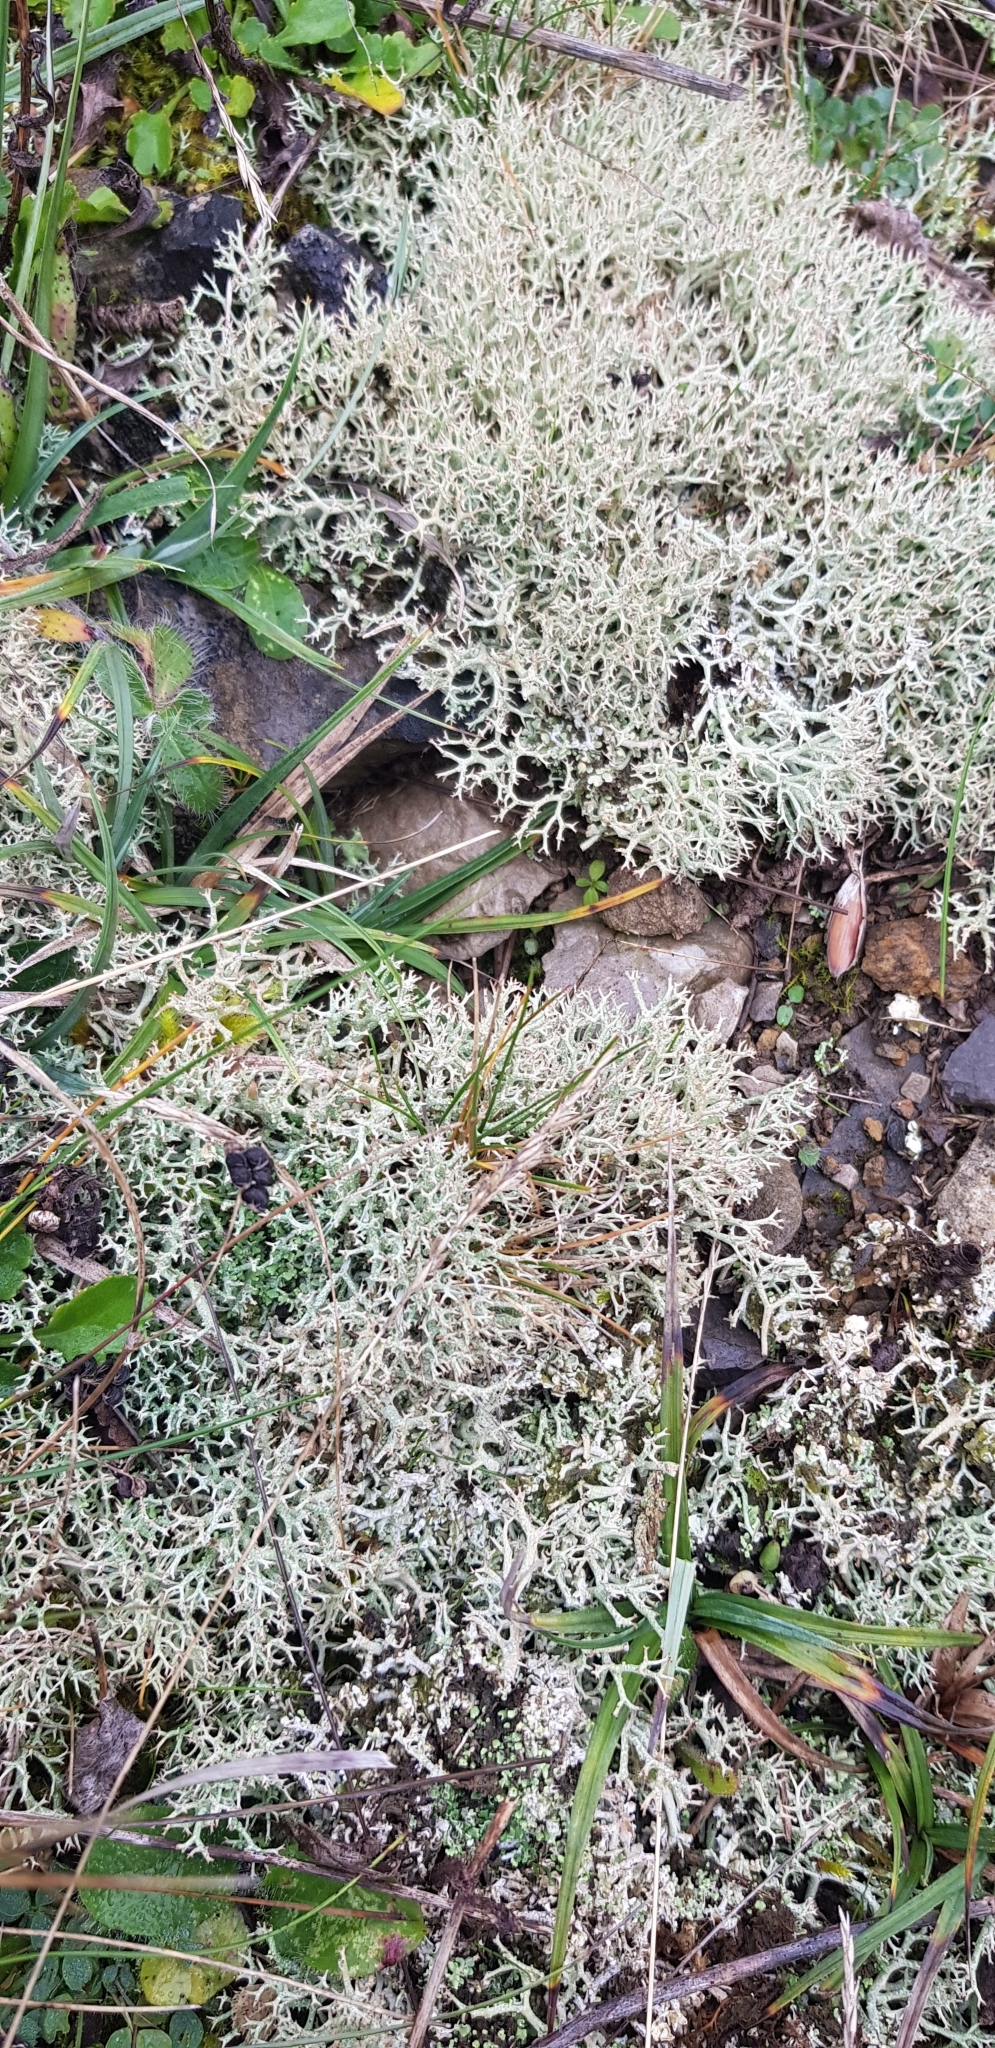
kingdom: Fungi
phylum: Ascomycota
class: Lecanoromycetes
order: Lecanorales
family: Cladoniaceae
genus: Cladonia
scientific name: Cladonia rangiformis
